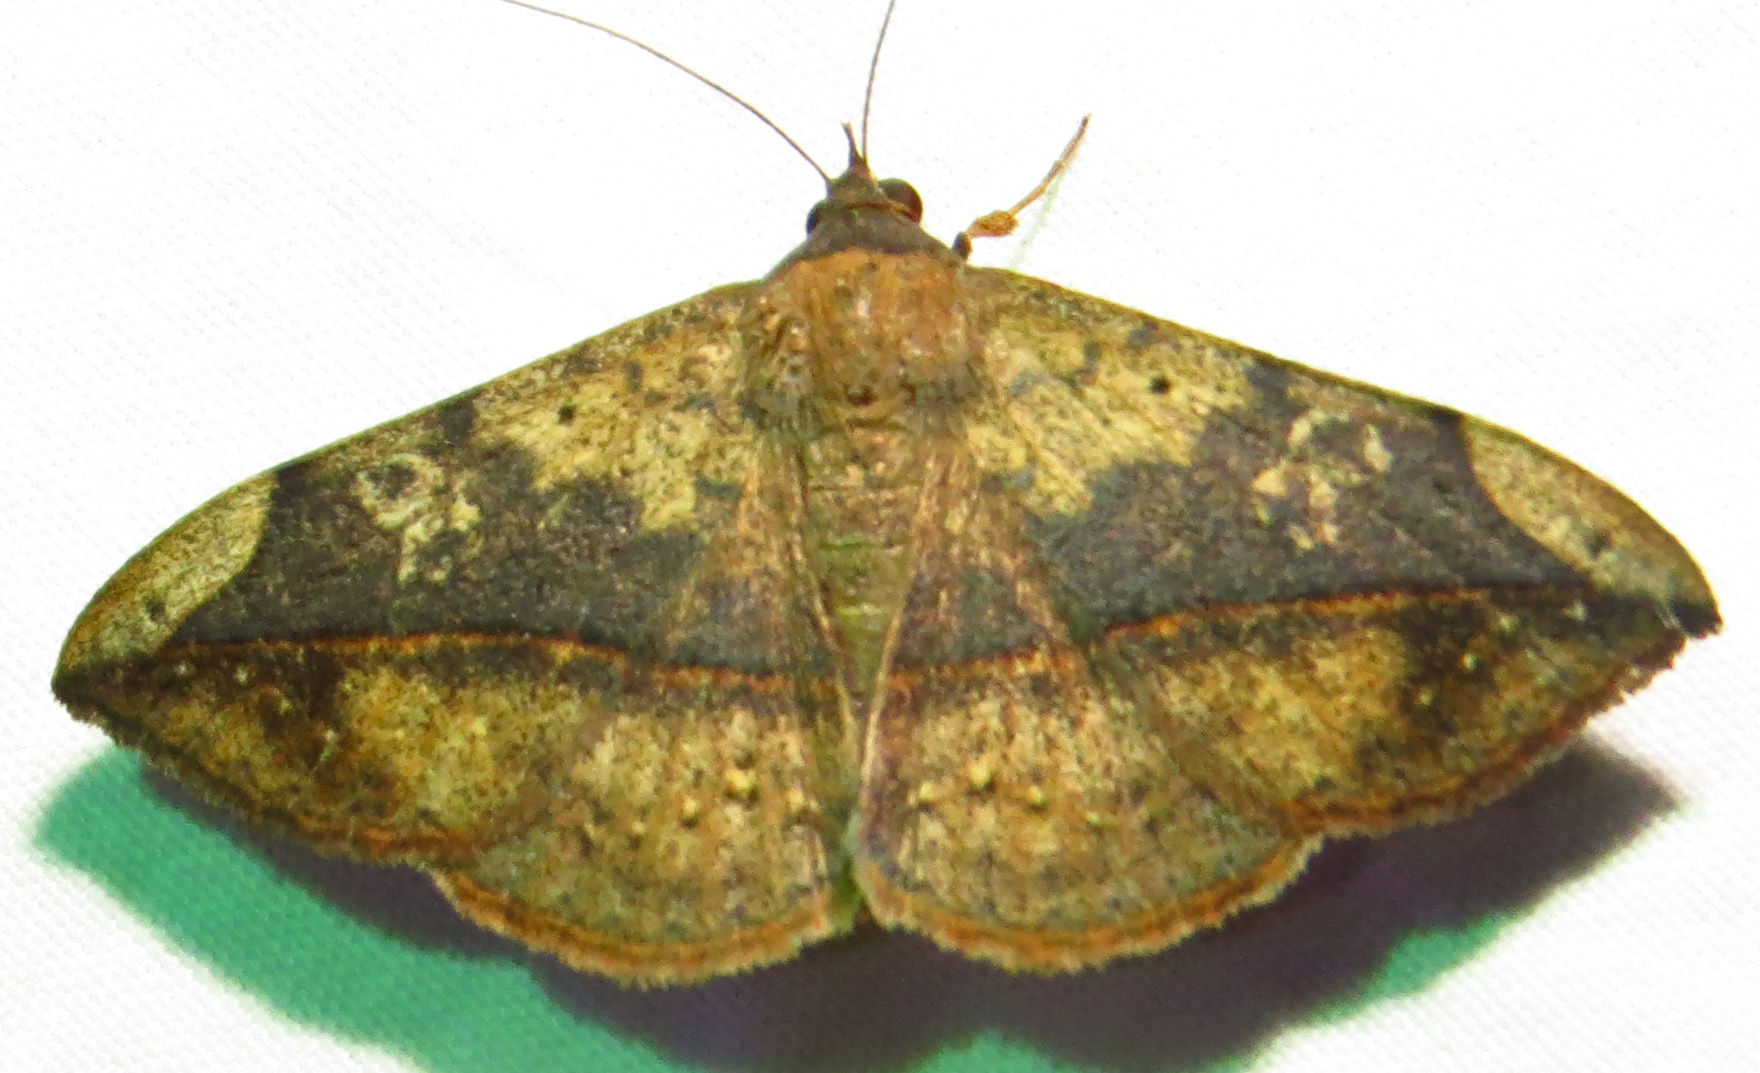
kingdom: Animalia
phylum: Arthropoda
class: Insecta
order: Lepidoptera
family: Erebidae
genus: Anticarsia
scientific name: Anticarsia gemmatalis
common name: Cutworm moth
